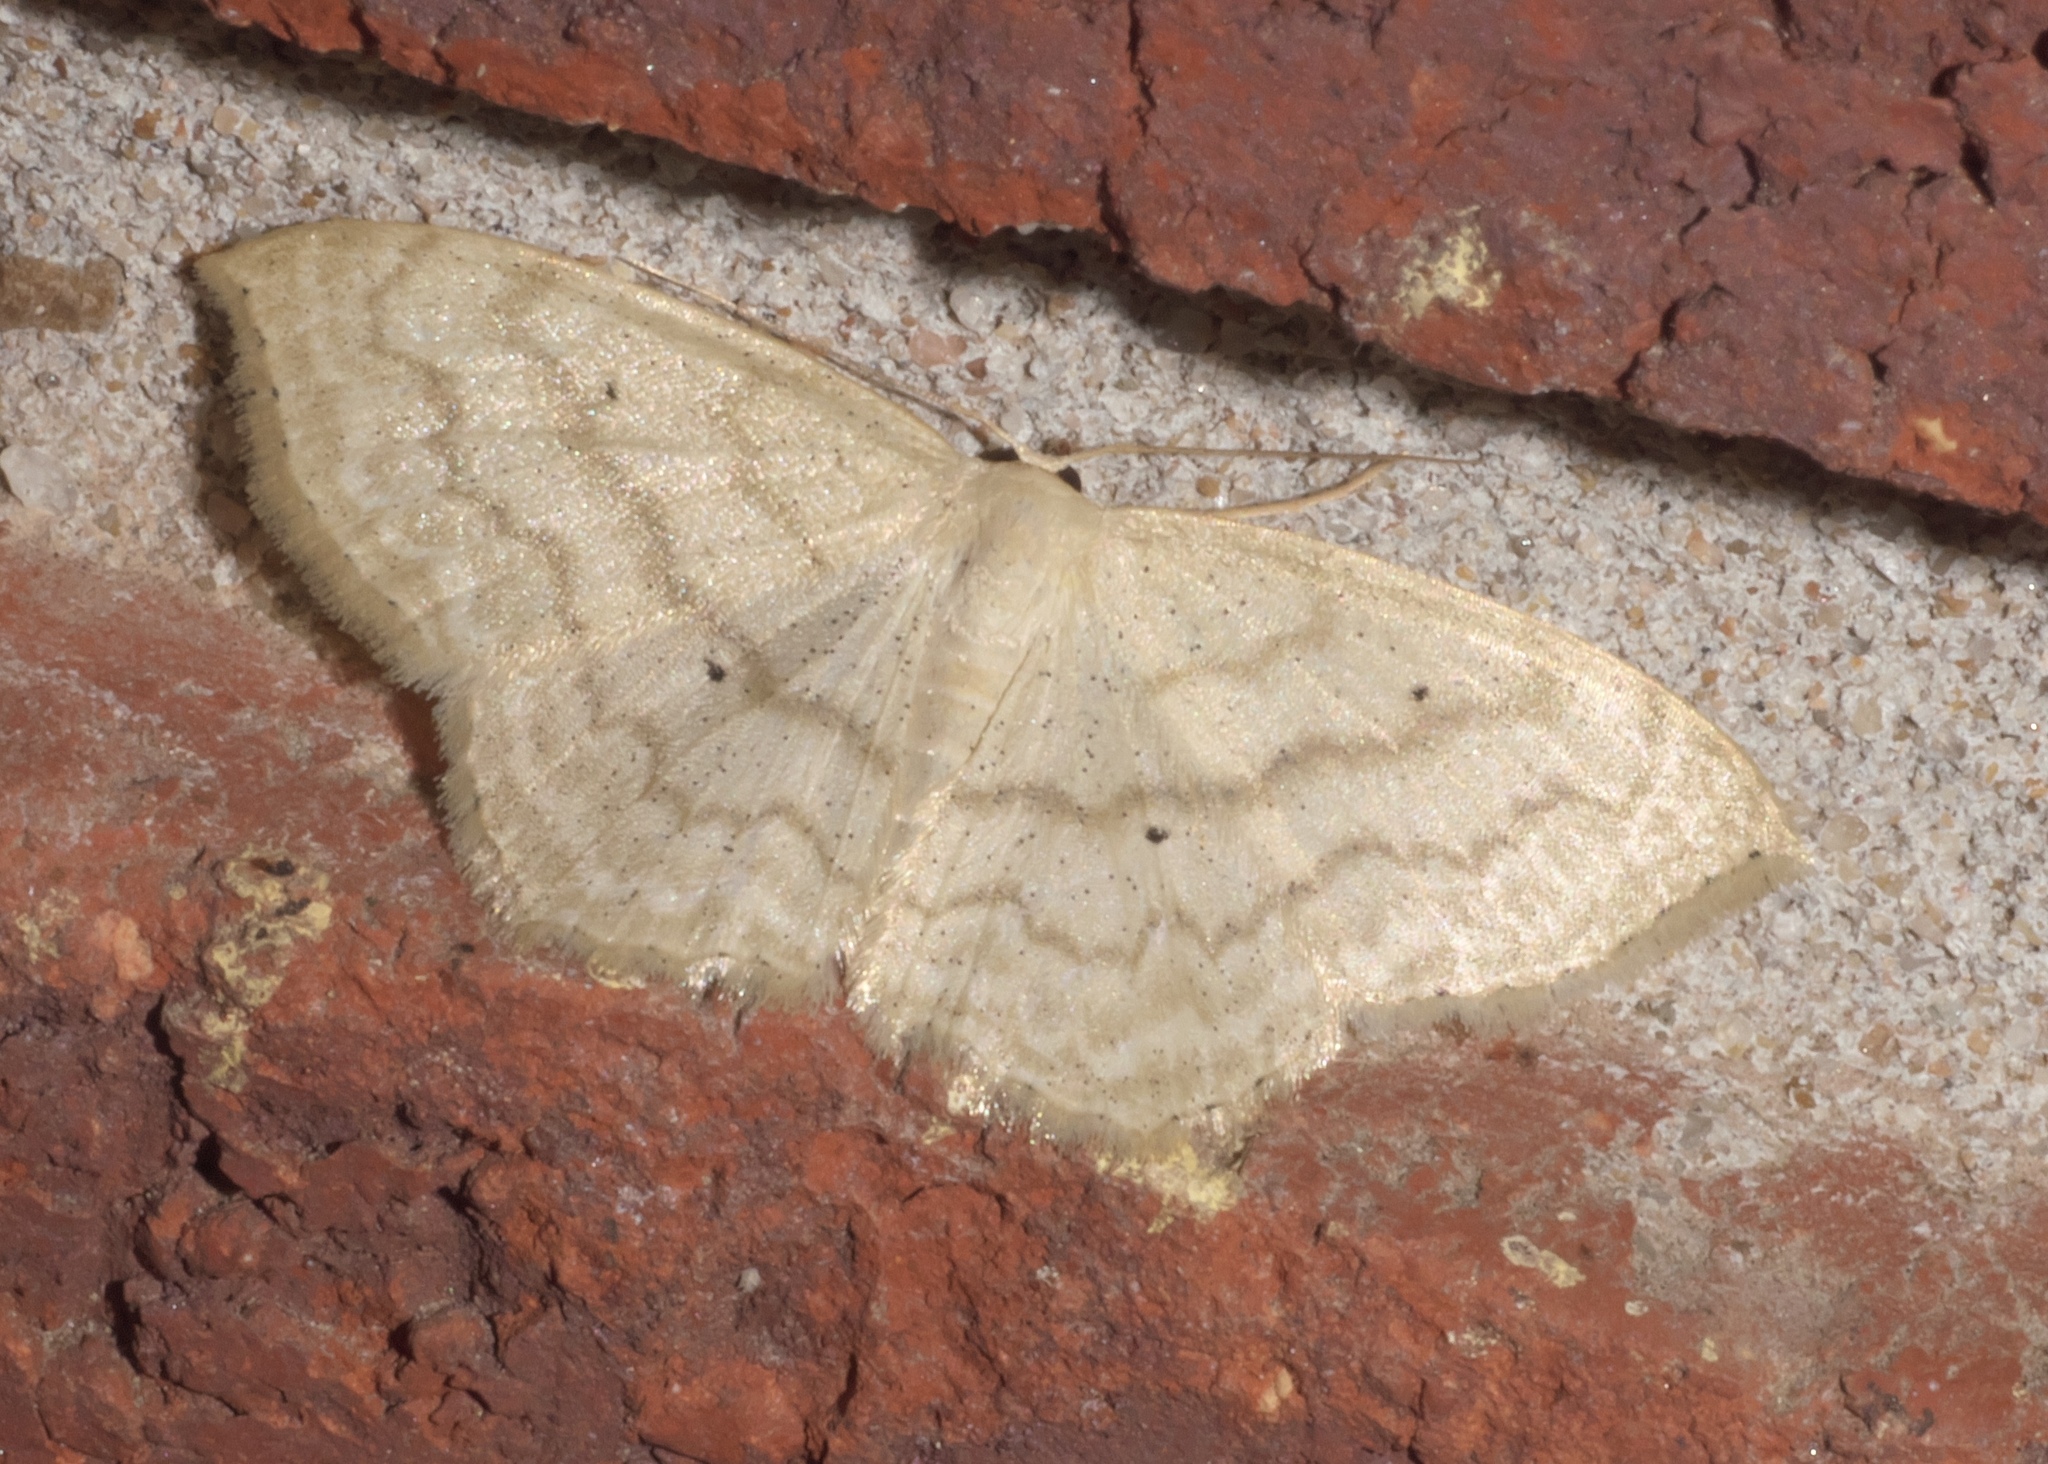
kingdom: Animalia
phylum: Arthropoda
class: Insecta
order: Lepidoptera
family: Geometridae
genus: Scopula
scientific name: Scopula limboundata
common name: Large lace border
